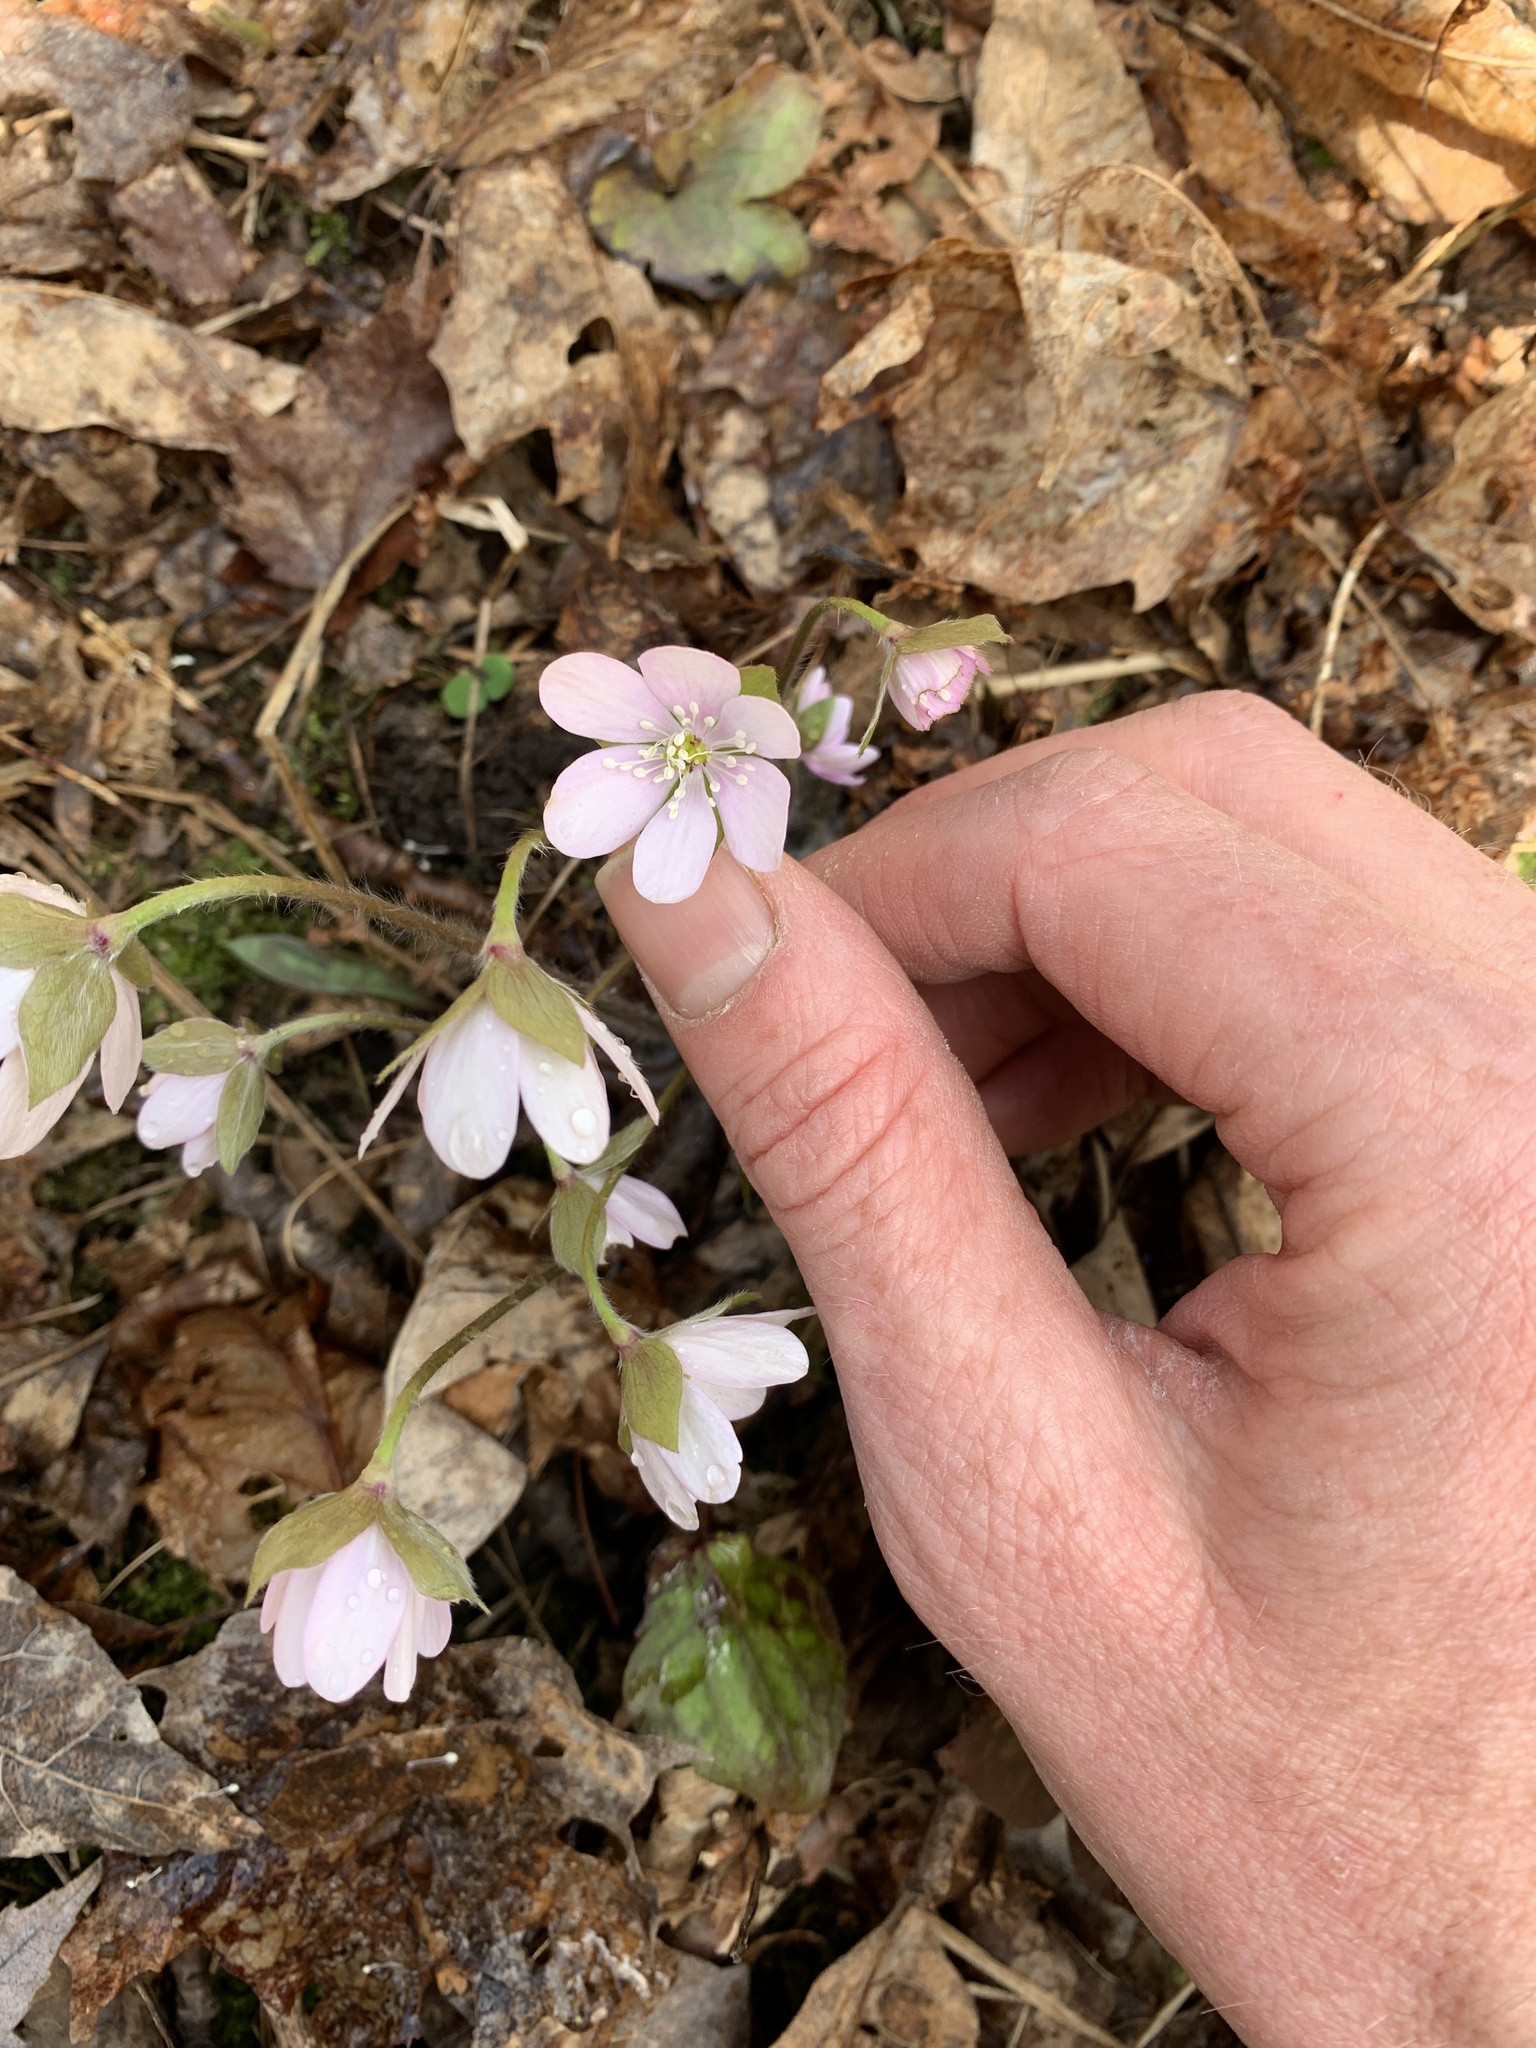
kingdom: Plantae
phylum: Tracheophyta
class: Magnoliopsida
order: Ranunculales
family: Ranunculaceae
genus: Hepatica
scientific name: Hepatica acutiloba
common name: Sharp-lobed hepatica
